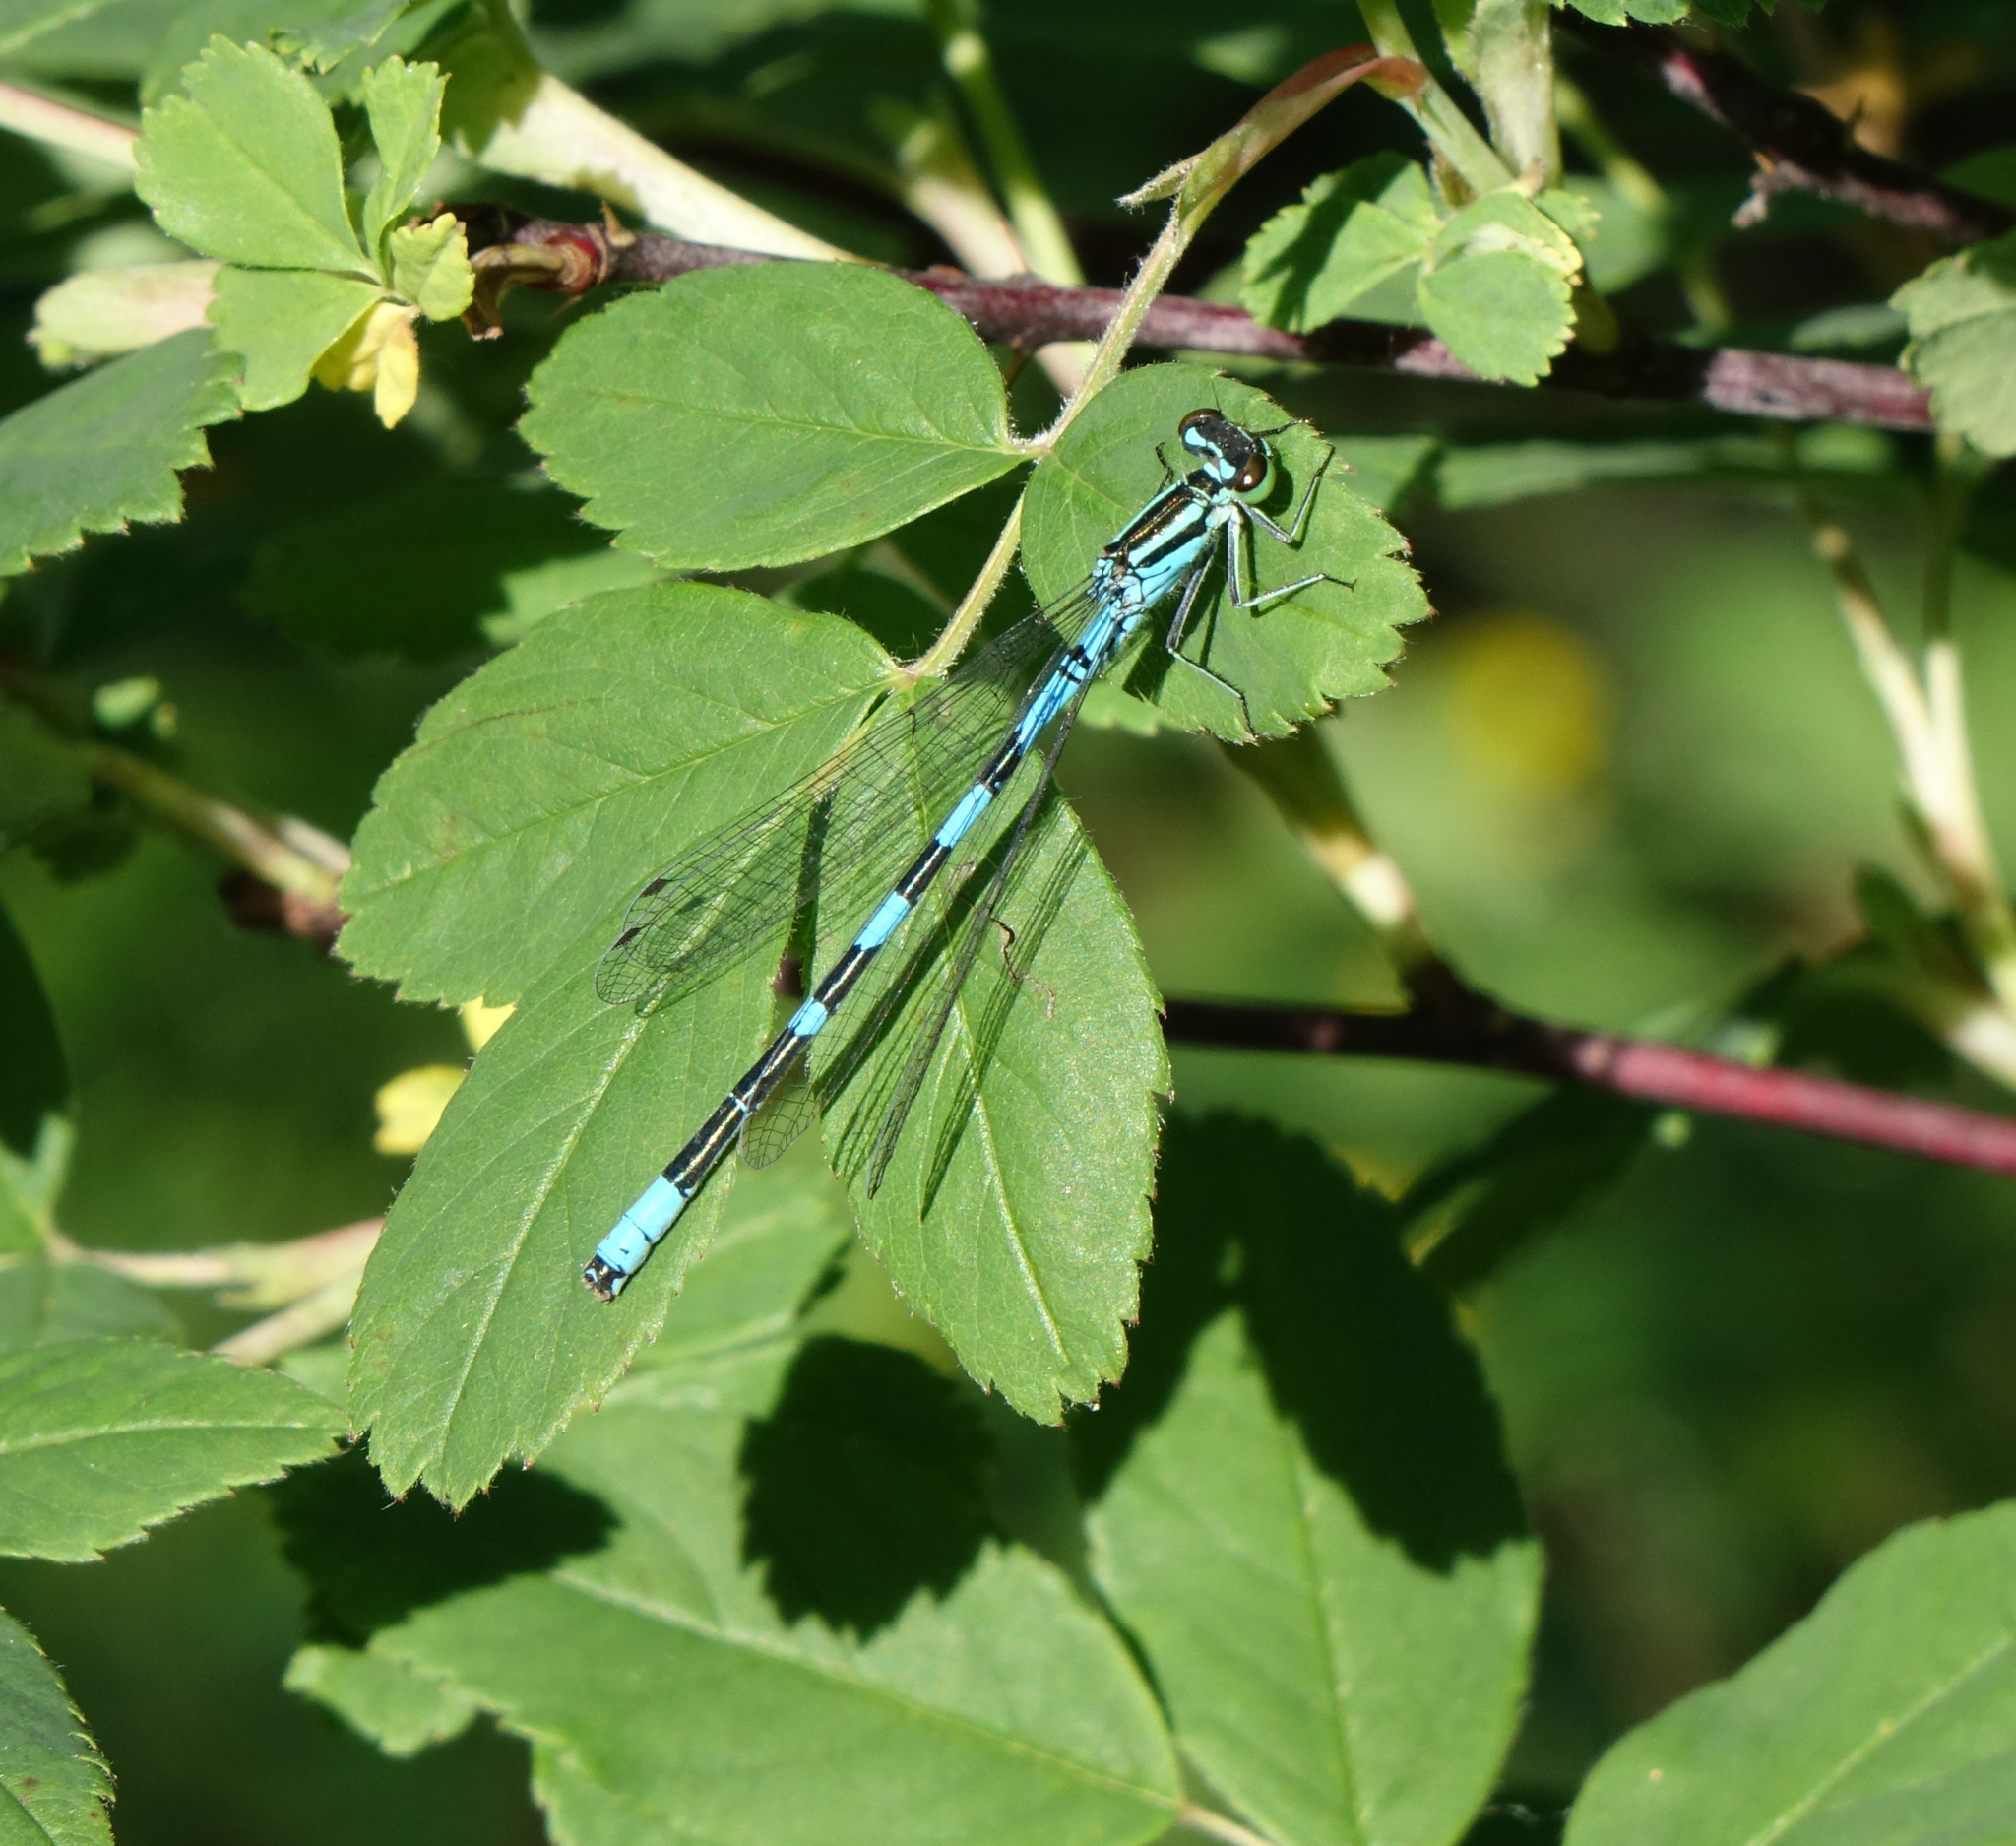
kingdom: Animalia
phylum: Arthropoda
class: Insecta
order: Odonata
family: Coenagrionidae
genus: Coenagrion
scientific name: Coenagrion hastulatum
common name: Spearhead bluet
